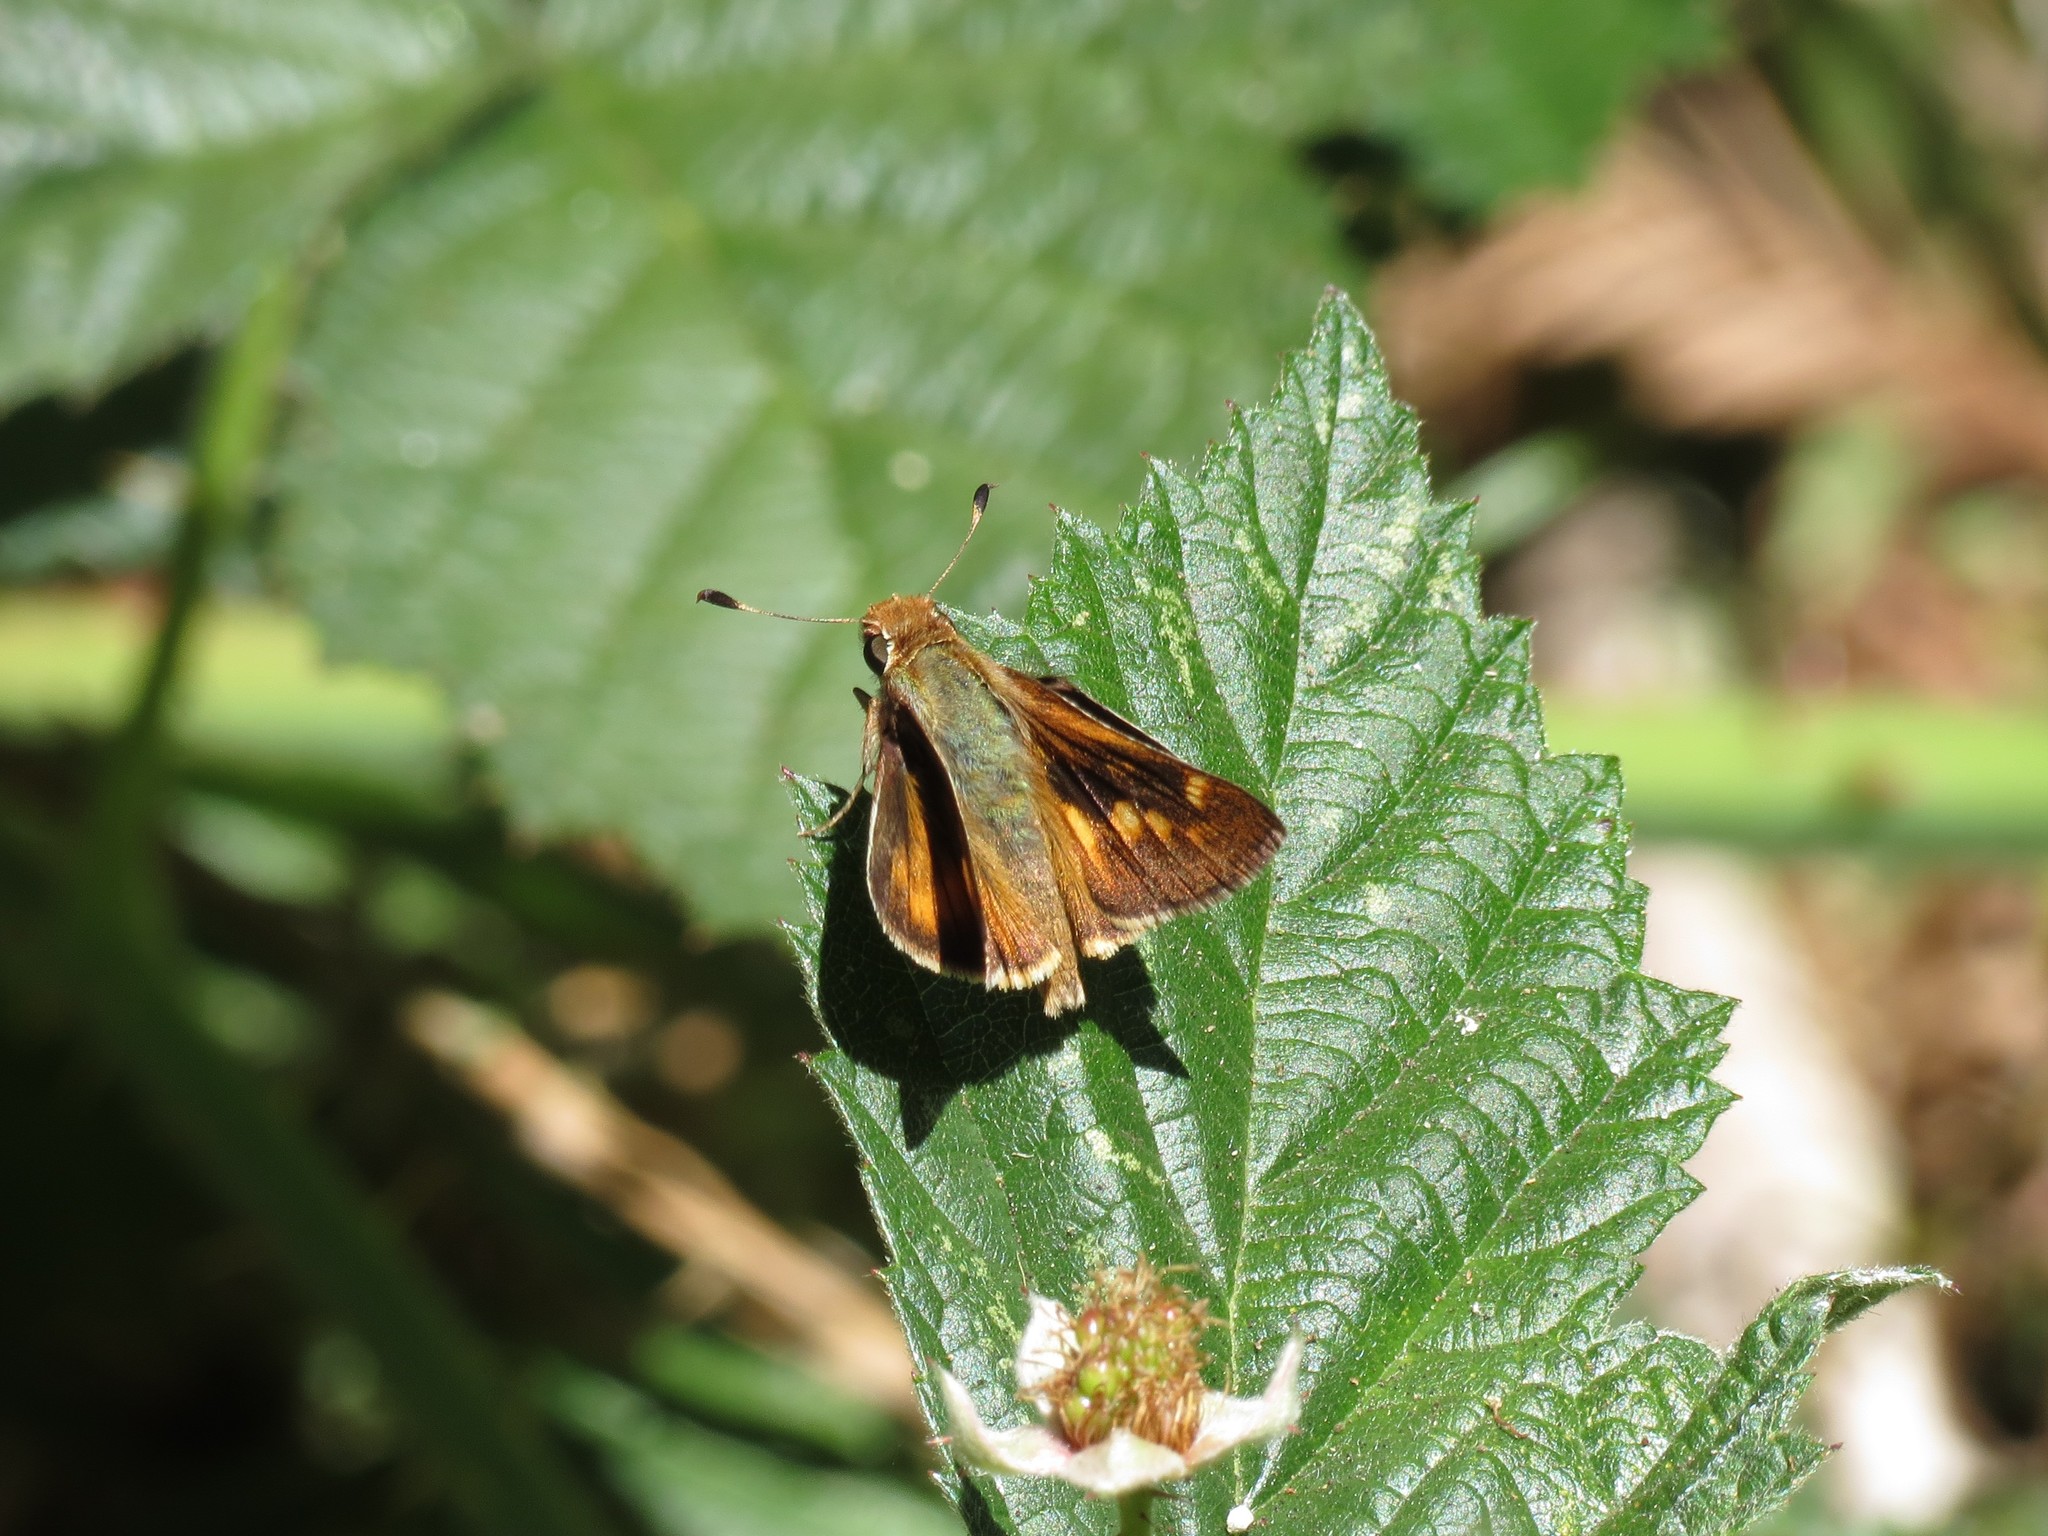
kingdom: Animalia
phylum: Arthropoda
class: Insecta
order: Lepidoptera
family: Hesperiidae
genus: Lon
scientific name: Lon melane
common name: Umber skipper
